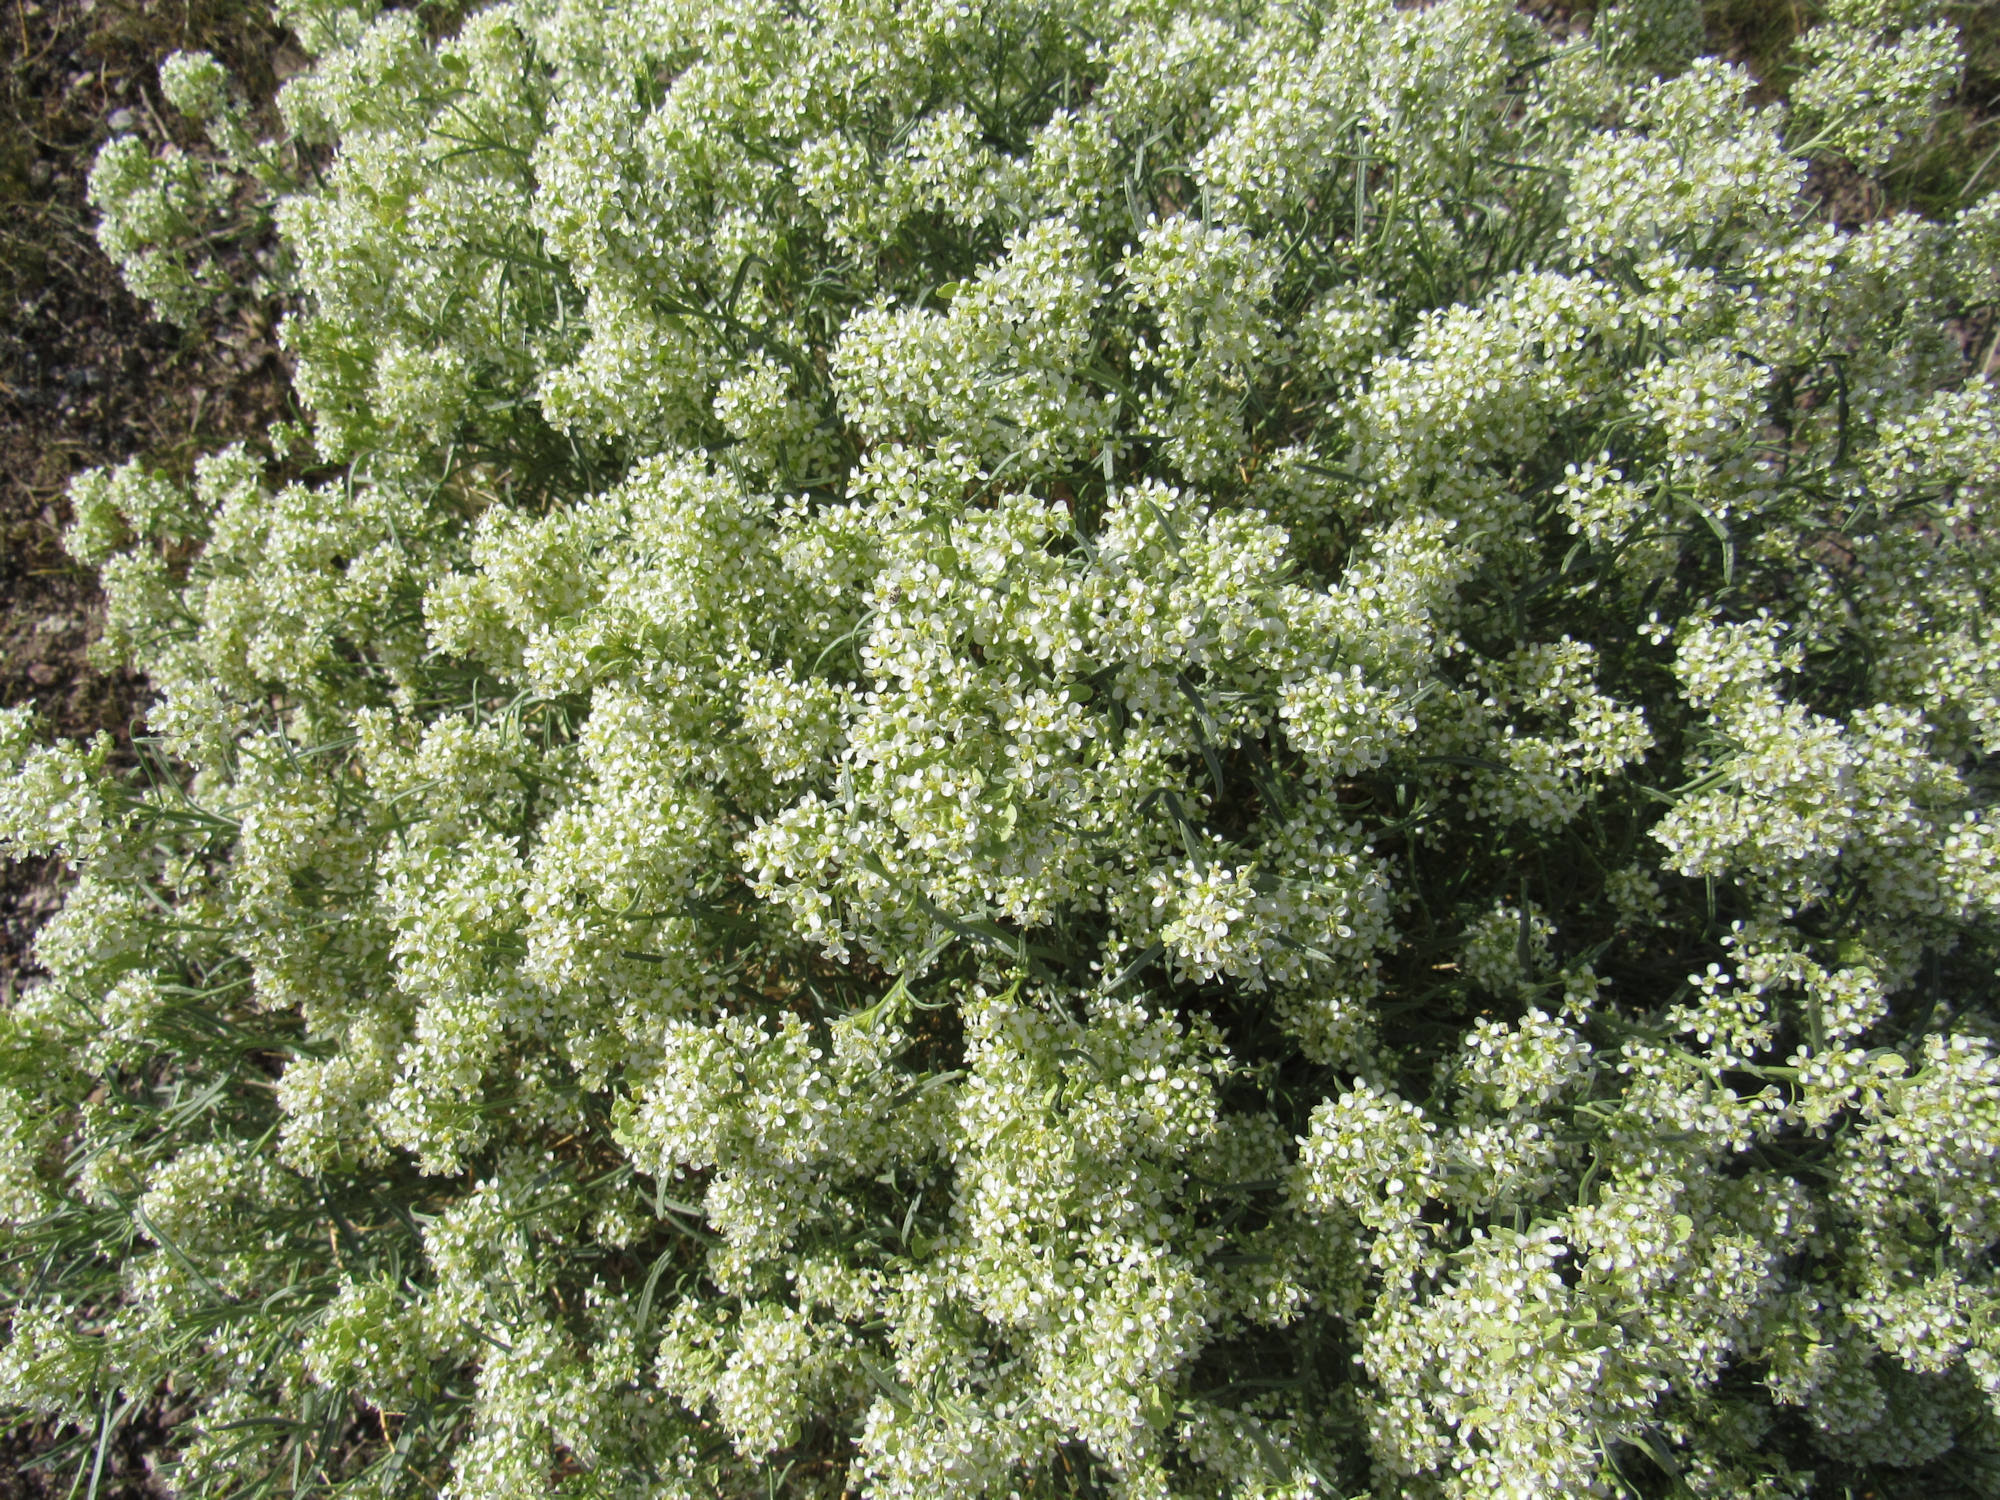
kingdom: Plantae
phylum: Tracheophyta
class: Magnoliopsida
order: Brassicales
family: Brassicaceae
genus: Lepidium
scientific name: Lepidium fremontii
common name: Fremont's pepperwort
